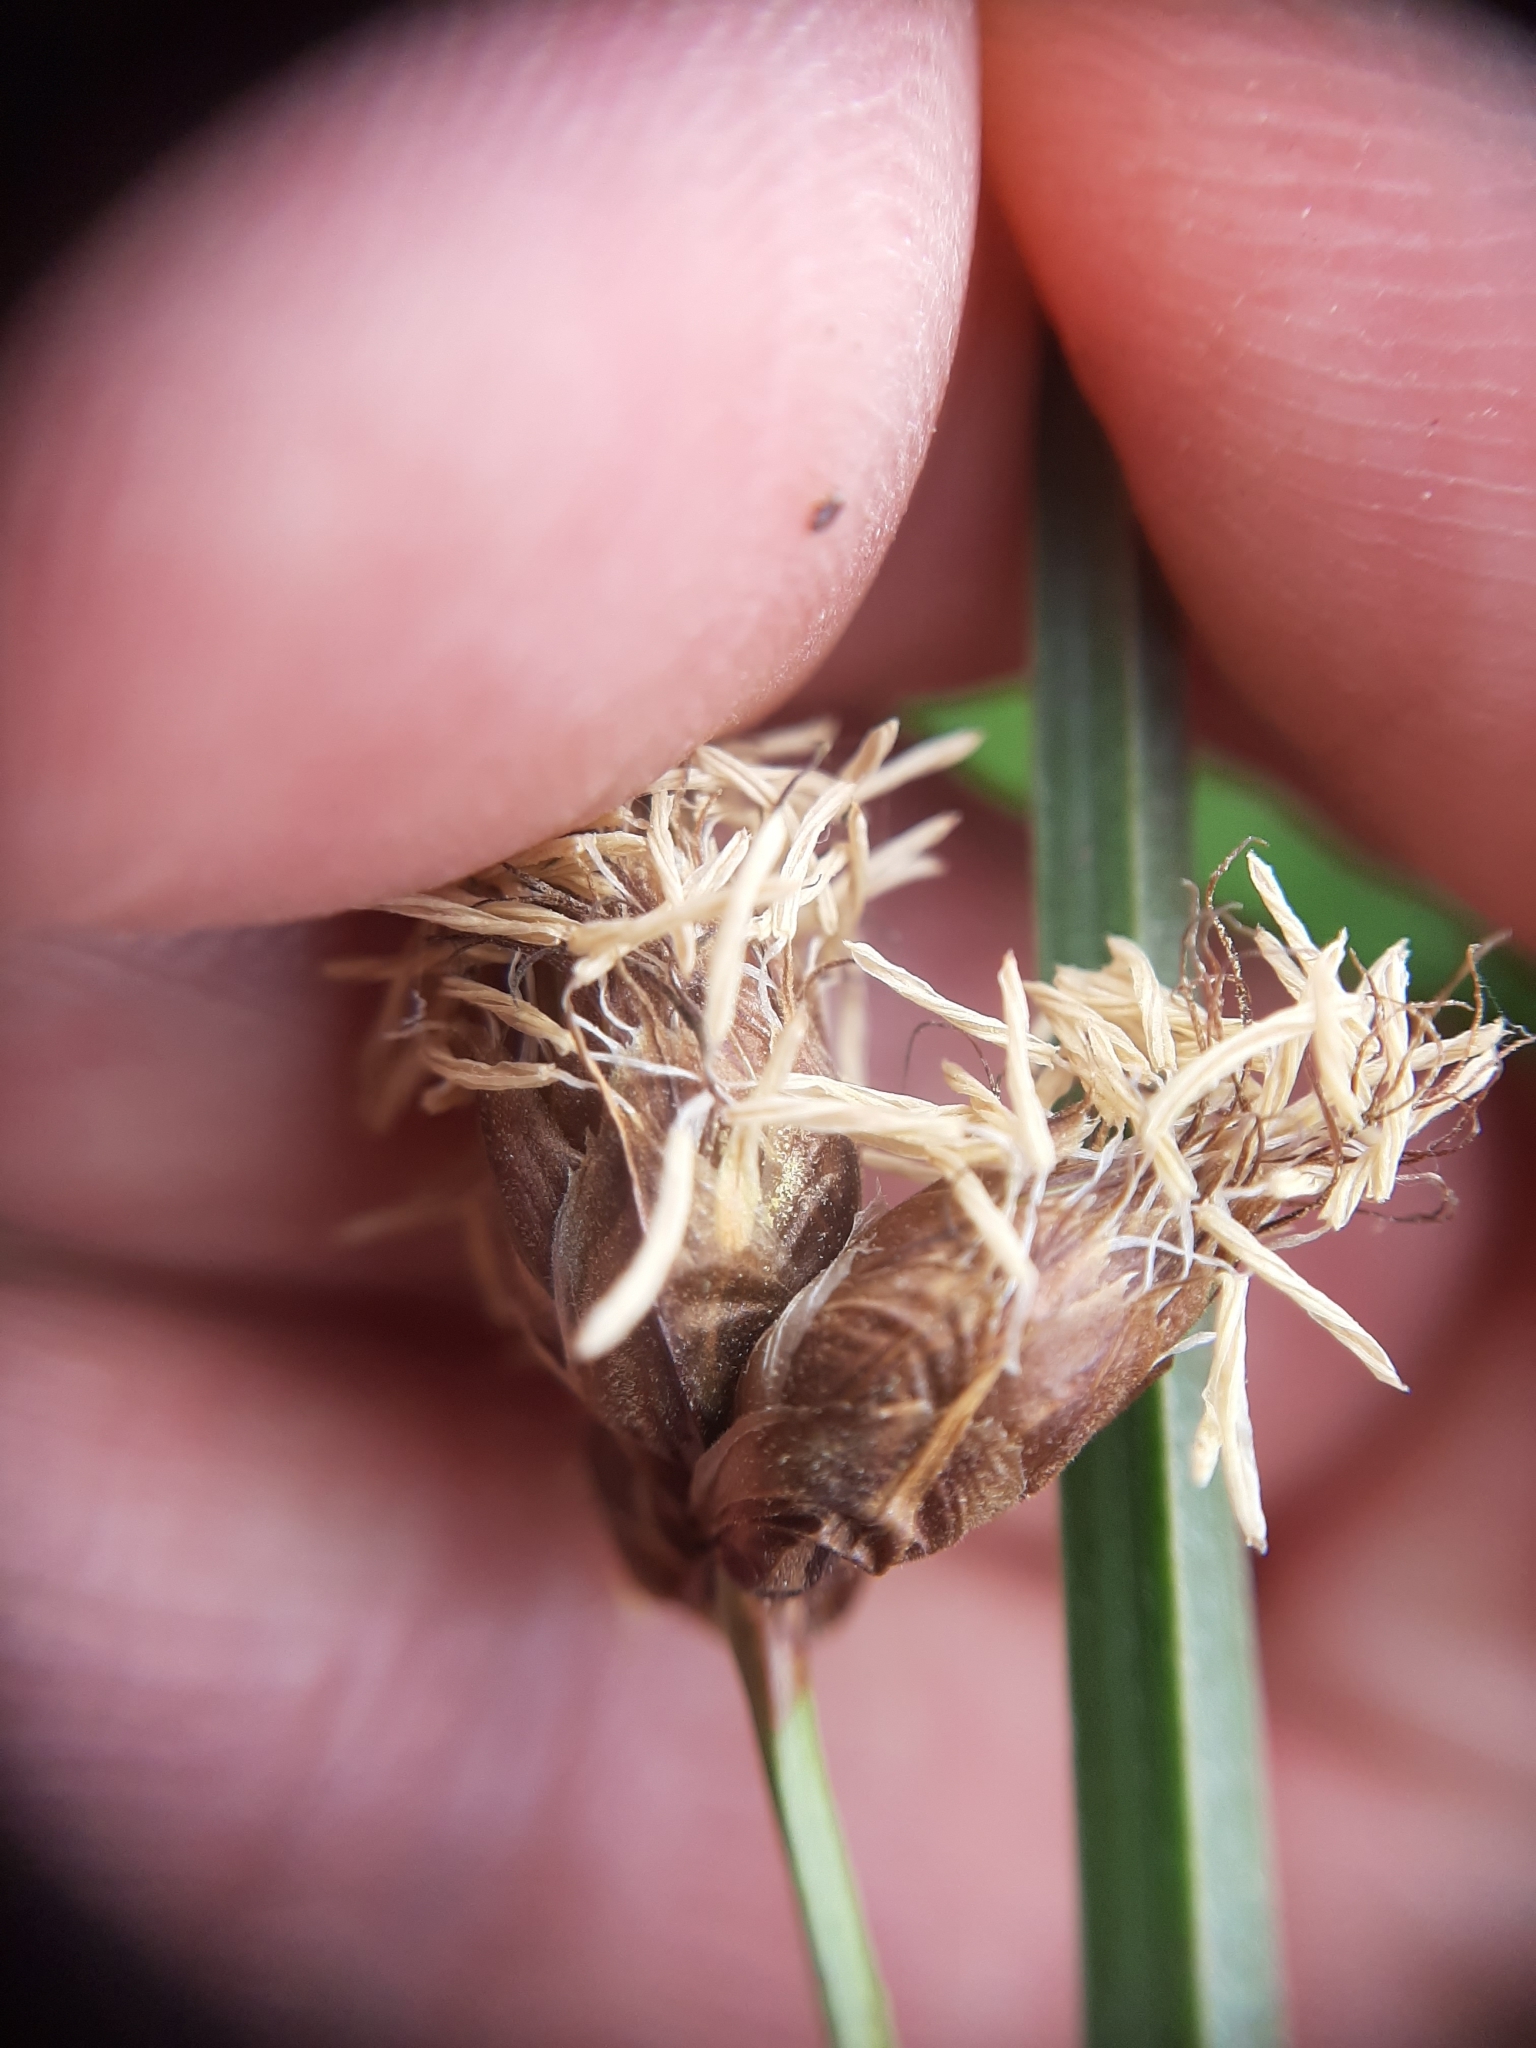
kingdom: Plantae
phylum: Tracheophyta
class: Liliopsida
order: Poales
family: Cyperaceae
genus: Bolboschoenus
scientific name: Bolboschoenus caldwellii
